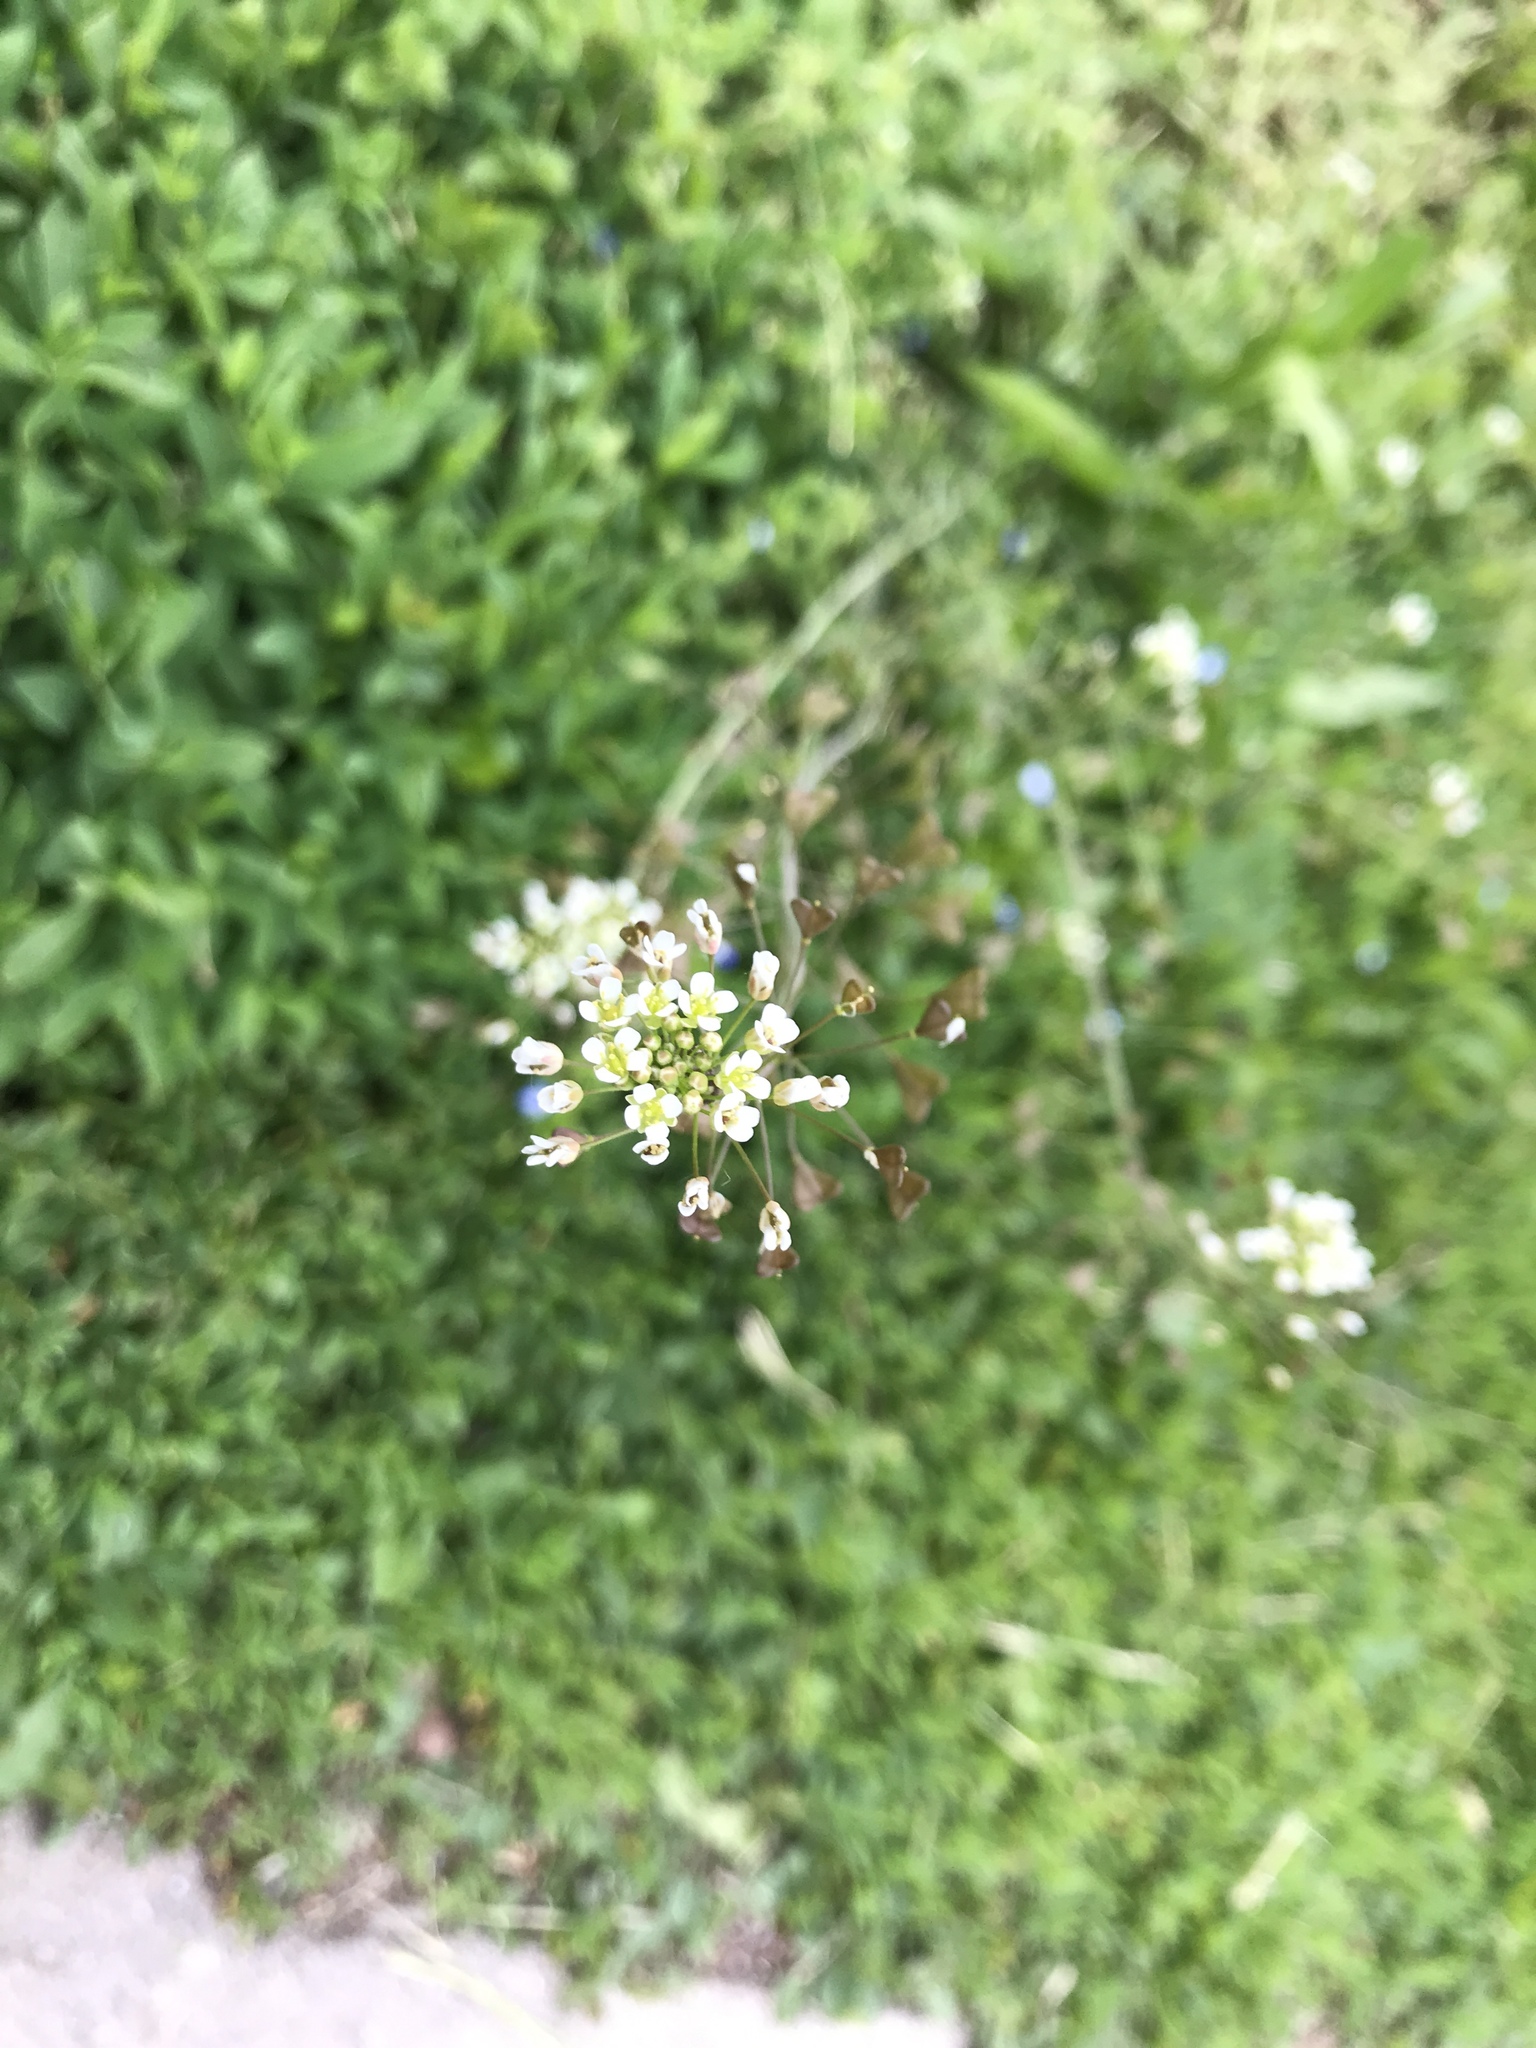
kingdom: Plantae
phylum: Tracheophyta
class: Magnoliopsida
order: Brassicales
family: Brassicaceae
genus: Capsella
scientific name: Capsella bursa-pastoris
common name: Shepherd's purse
